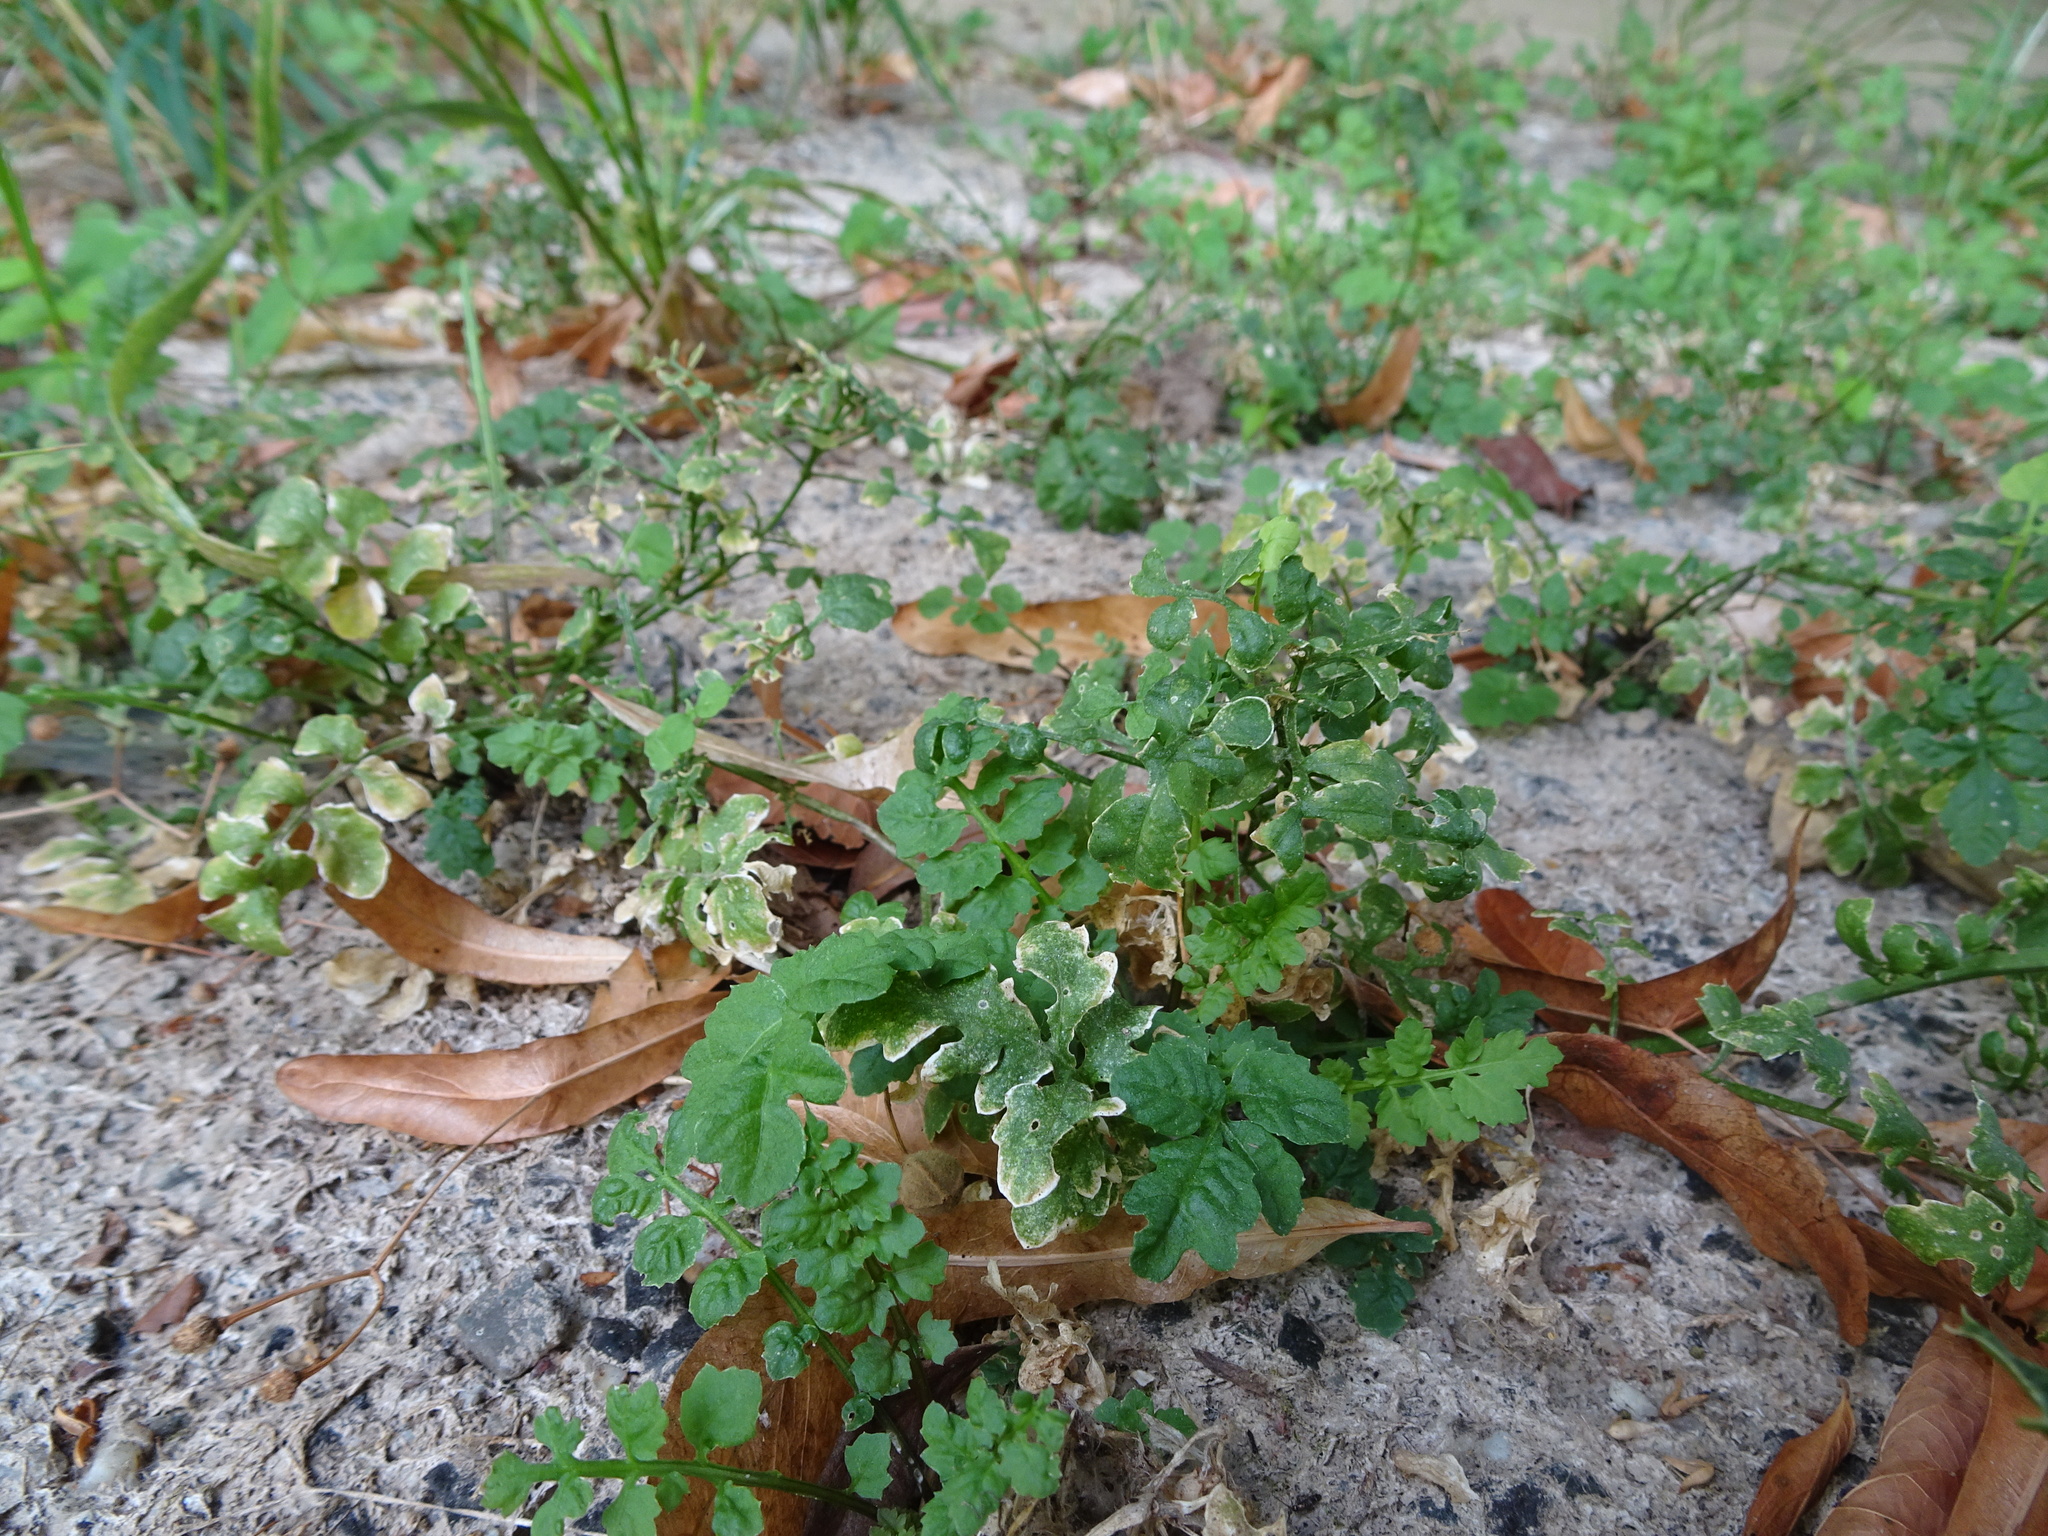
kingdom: Plantae
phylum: Tracheophyta
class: Magnoliopsida
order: Brassicales
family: Brassicaceae
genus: Cardamine
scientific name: Cardamine flexuosa
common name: Woodland bittercress
